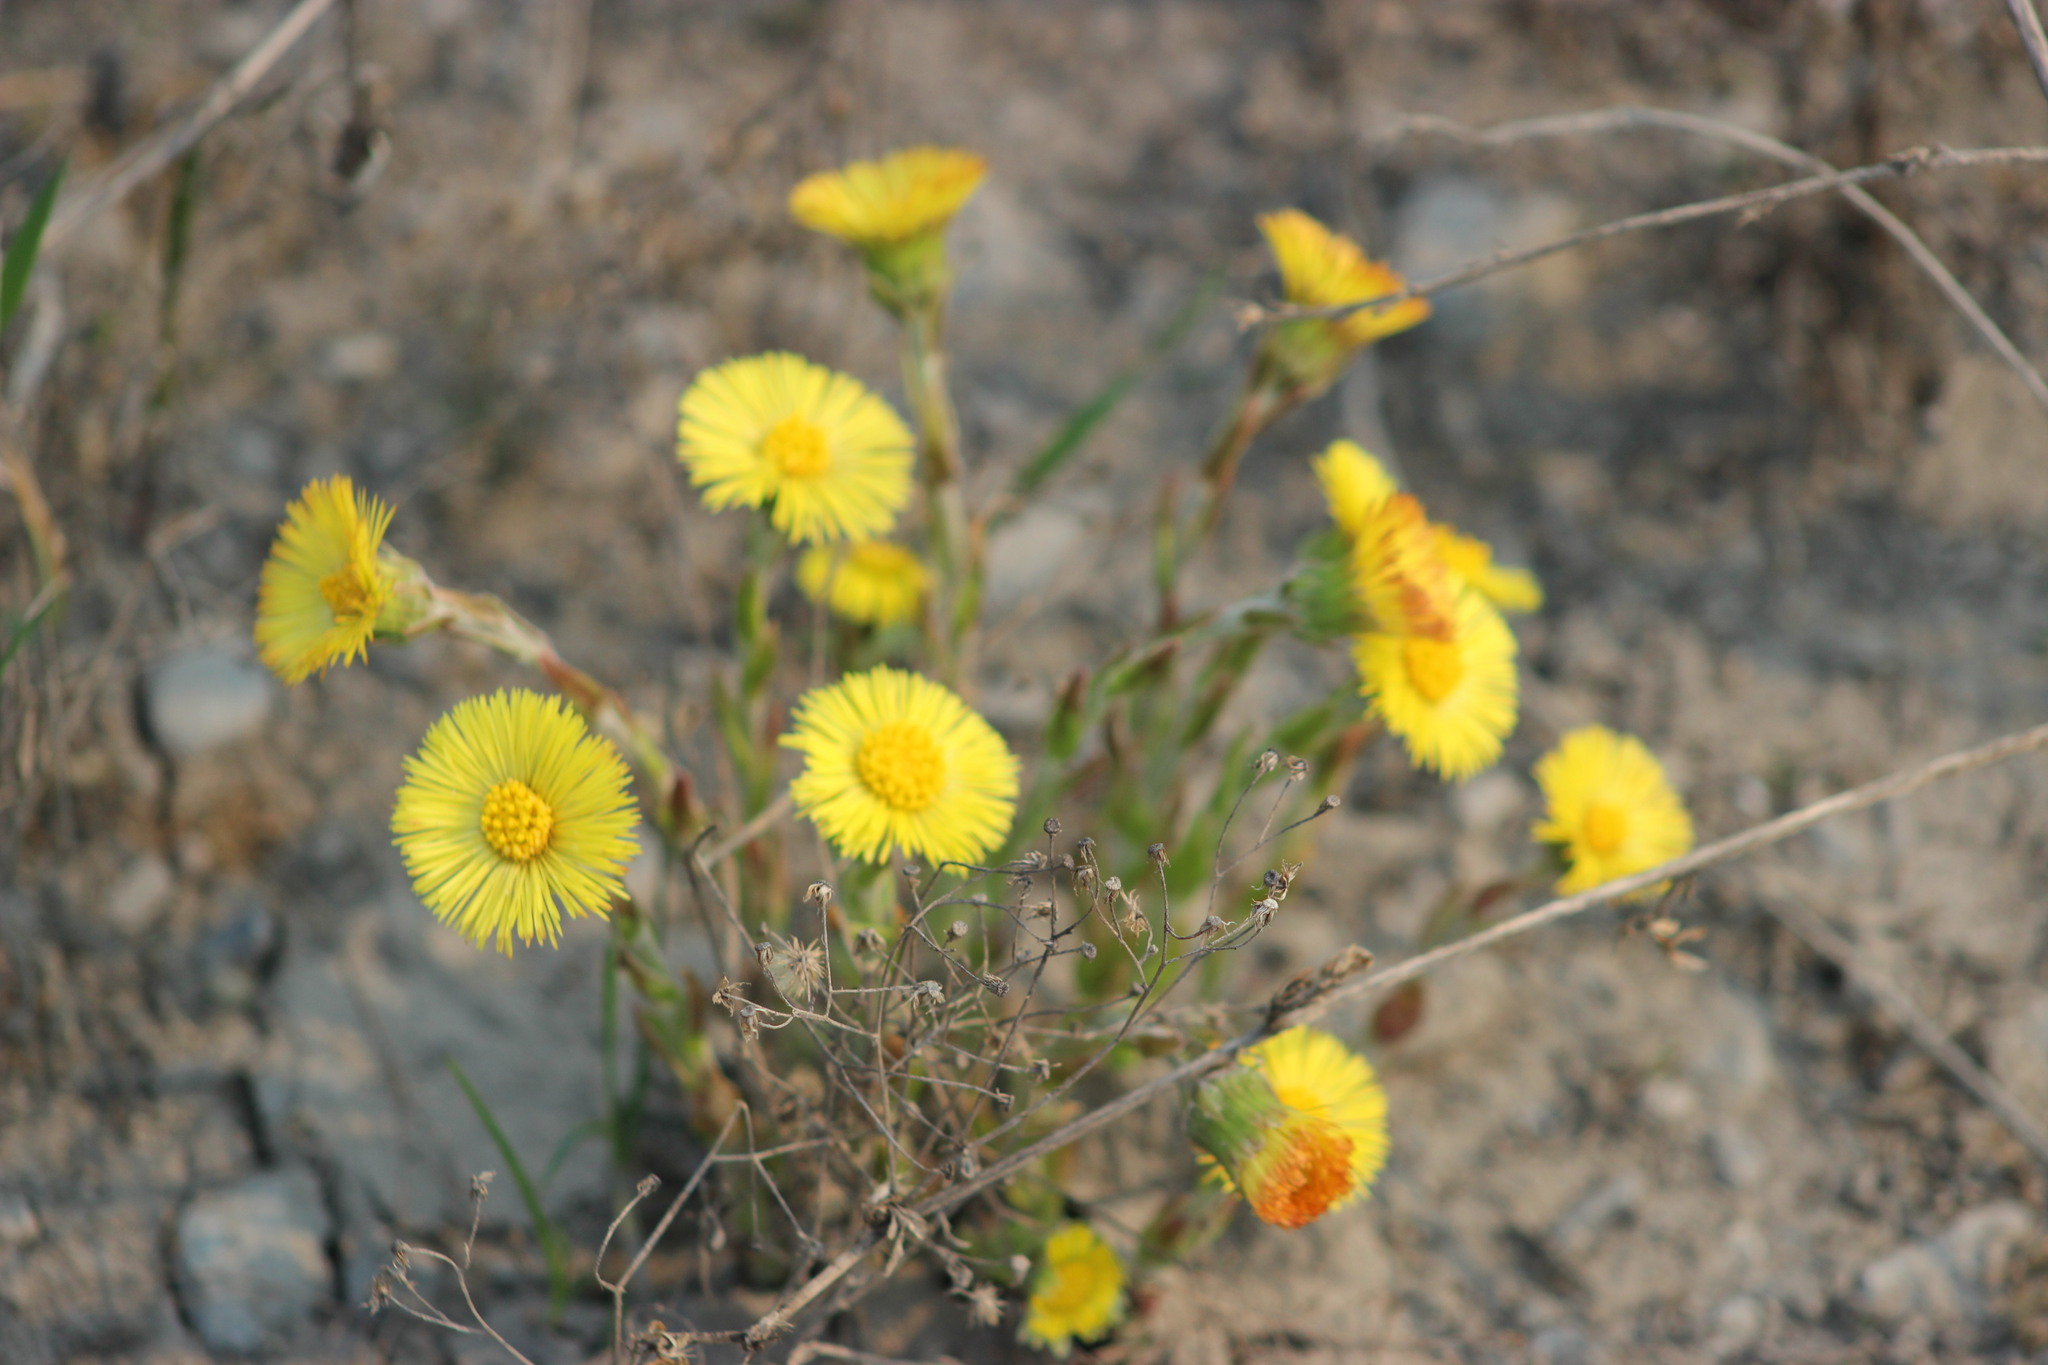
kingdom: Plantae
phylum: Tracheophyta
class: Magnoliopsida
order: Asterales
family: Asteraceae
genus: Tussilago
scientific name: Tussilago farfara
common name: Coltsfoot
